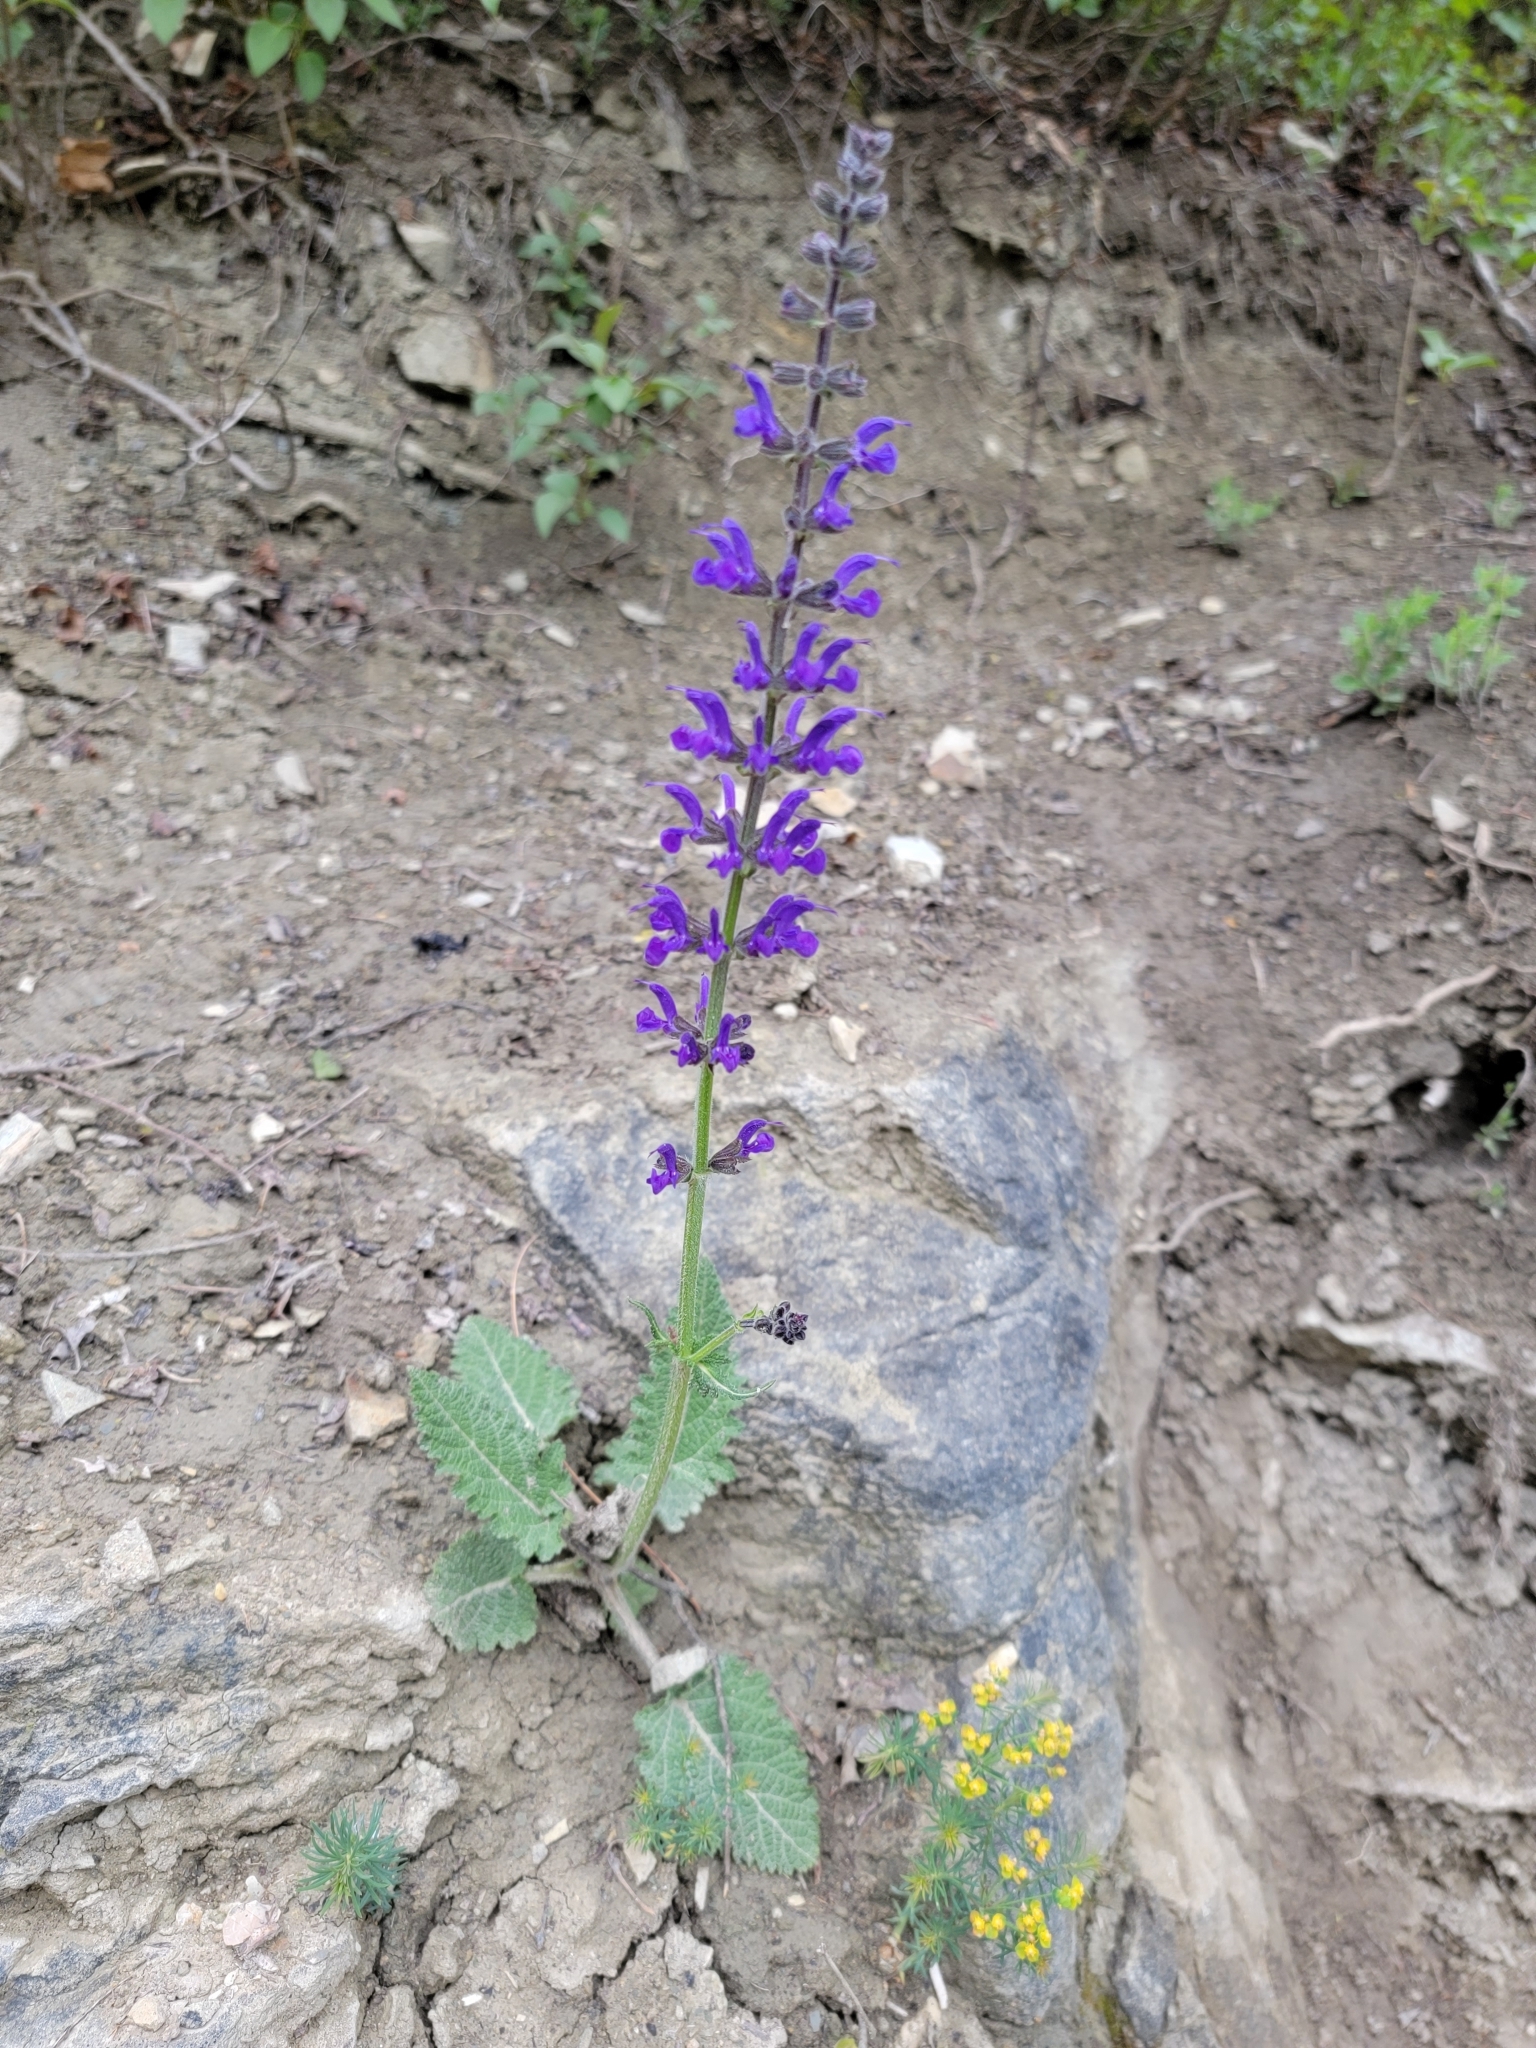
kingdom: Plantae
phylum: Tracheophyta
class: Magnoliopsida
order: Lamiales
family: Lamiaceae
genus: Salvia
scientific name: Salvia pratensis
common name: Meadow sage
